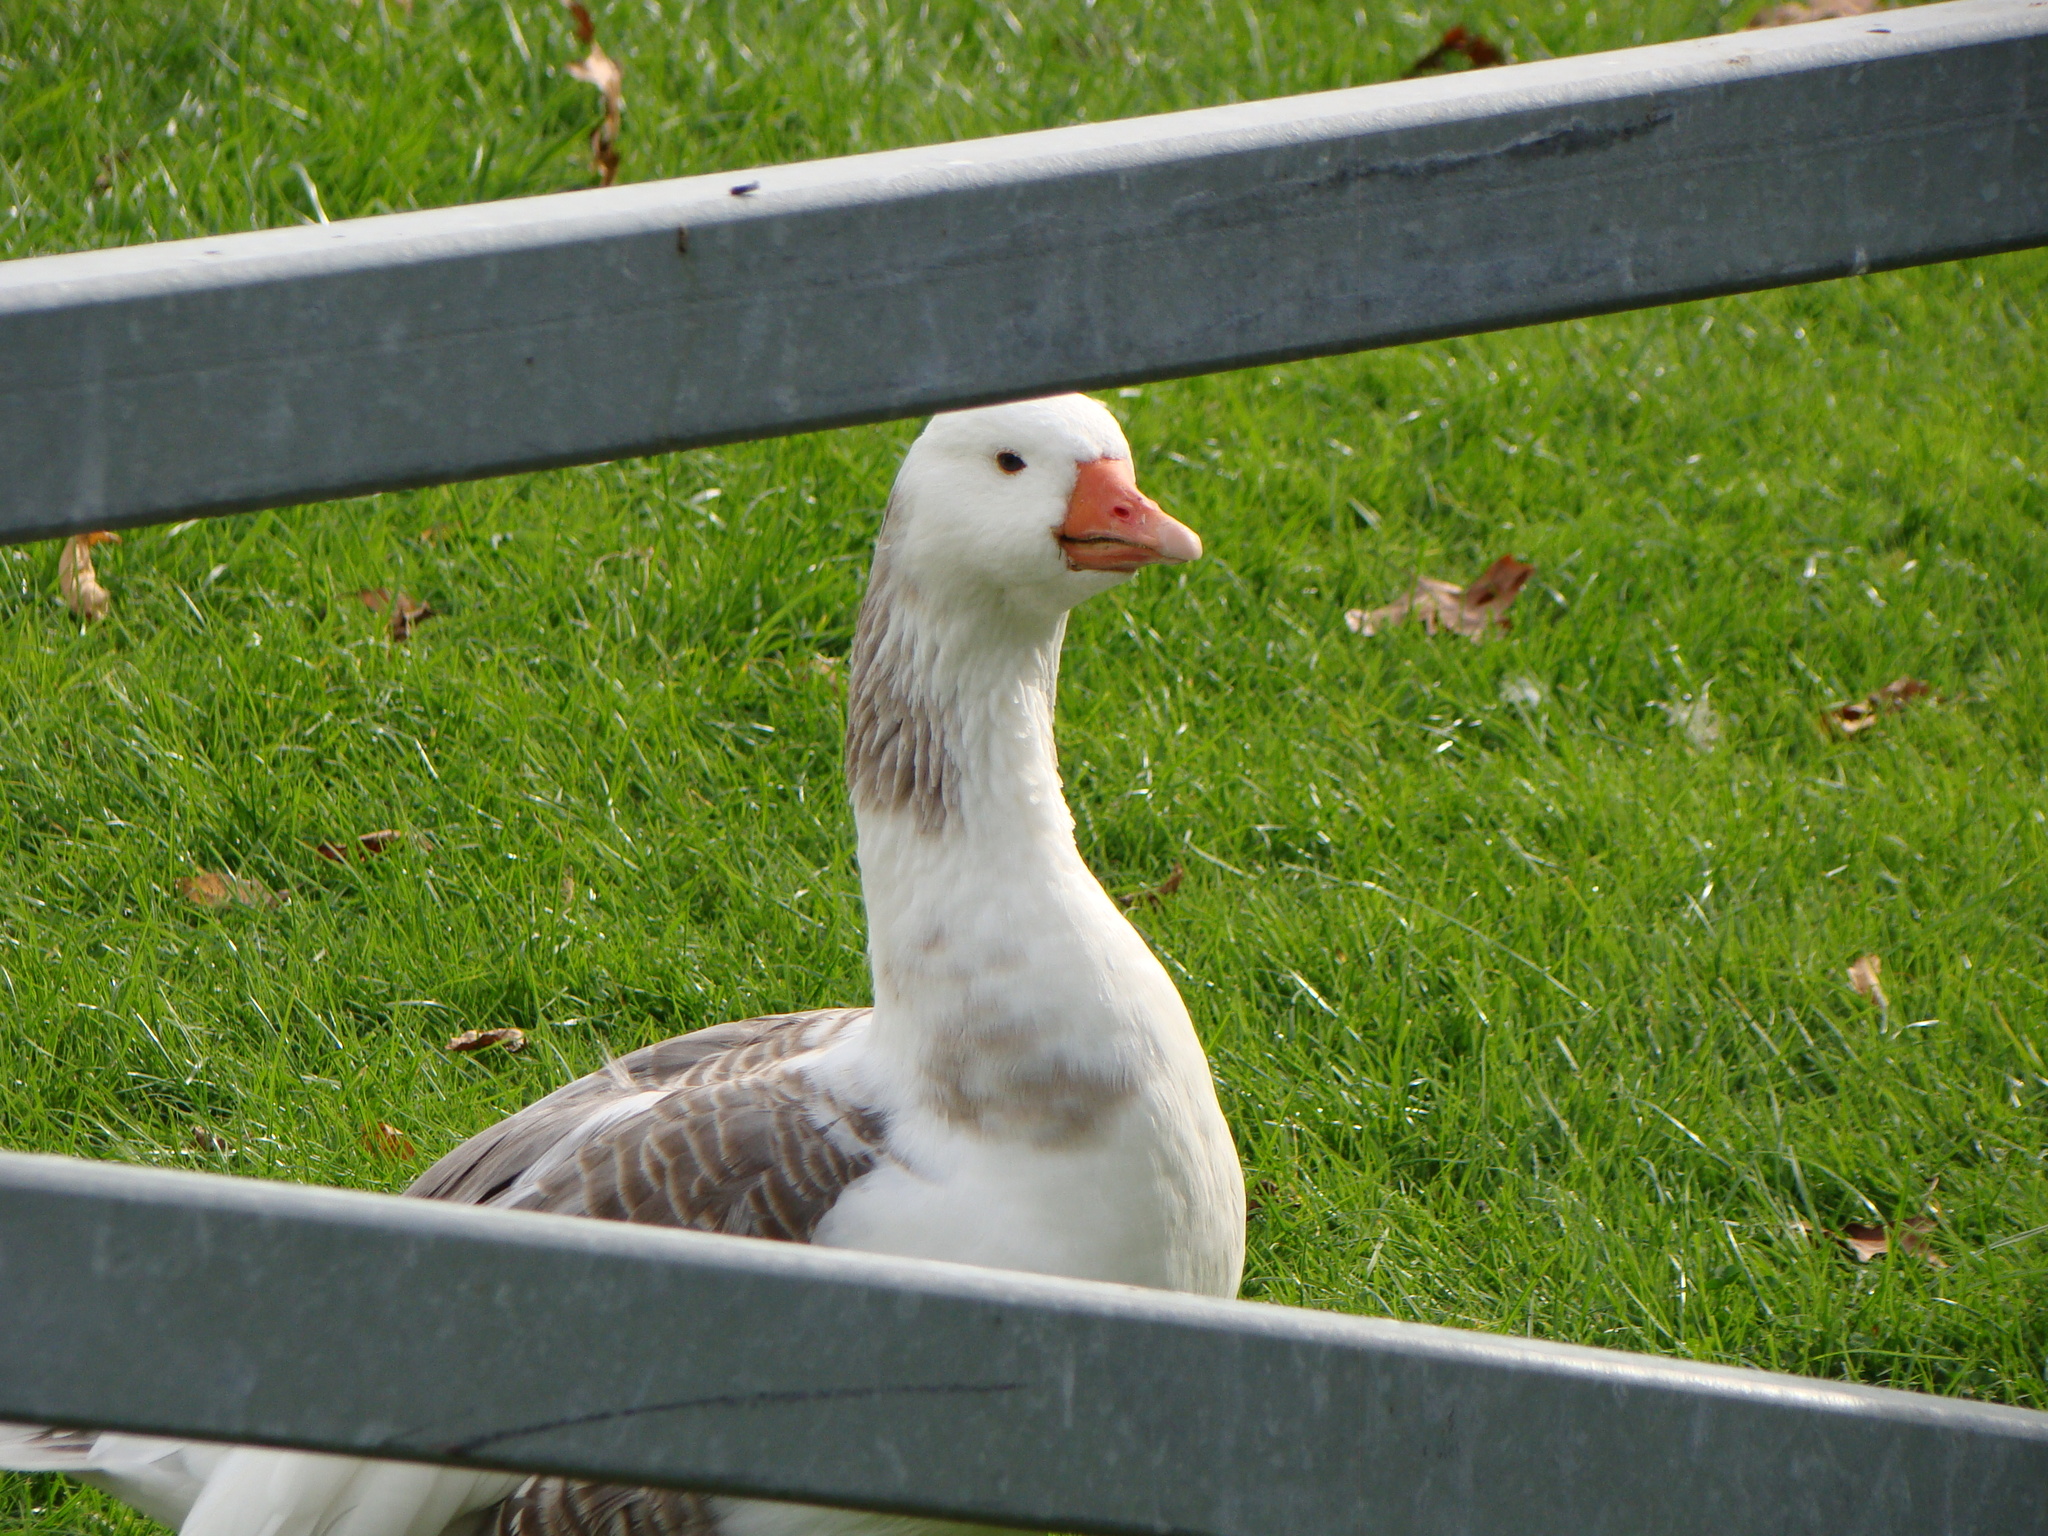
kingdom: Animalia
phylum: Chordata
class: Aves
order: Anseriformes
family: Anatidae
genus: Anser
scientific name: Anser anser
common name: Greylag goose
